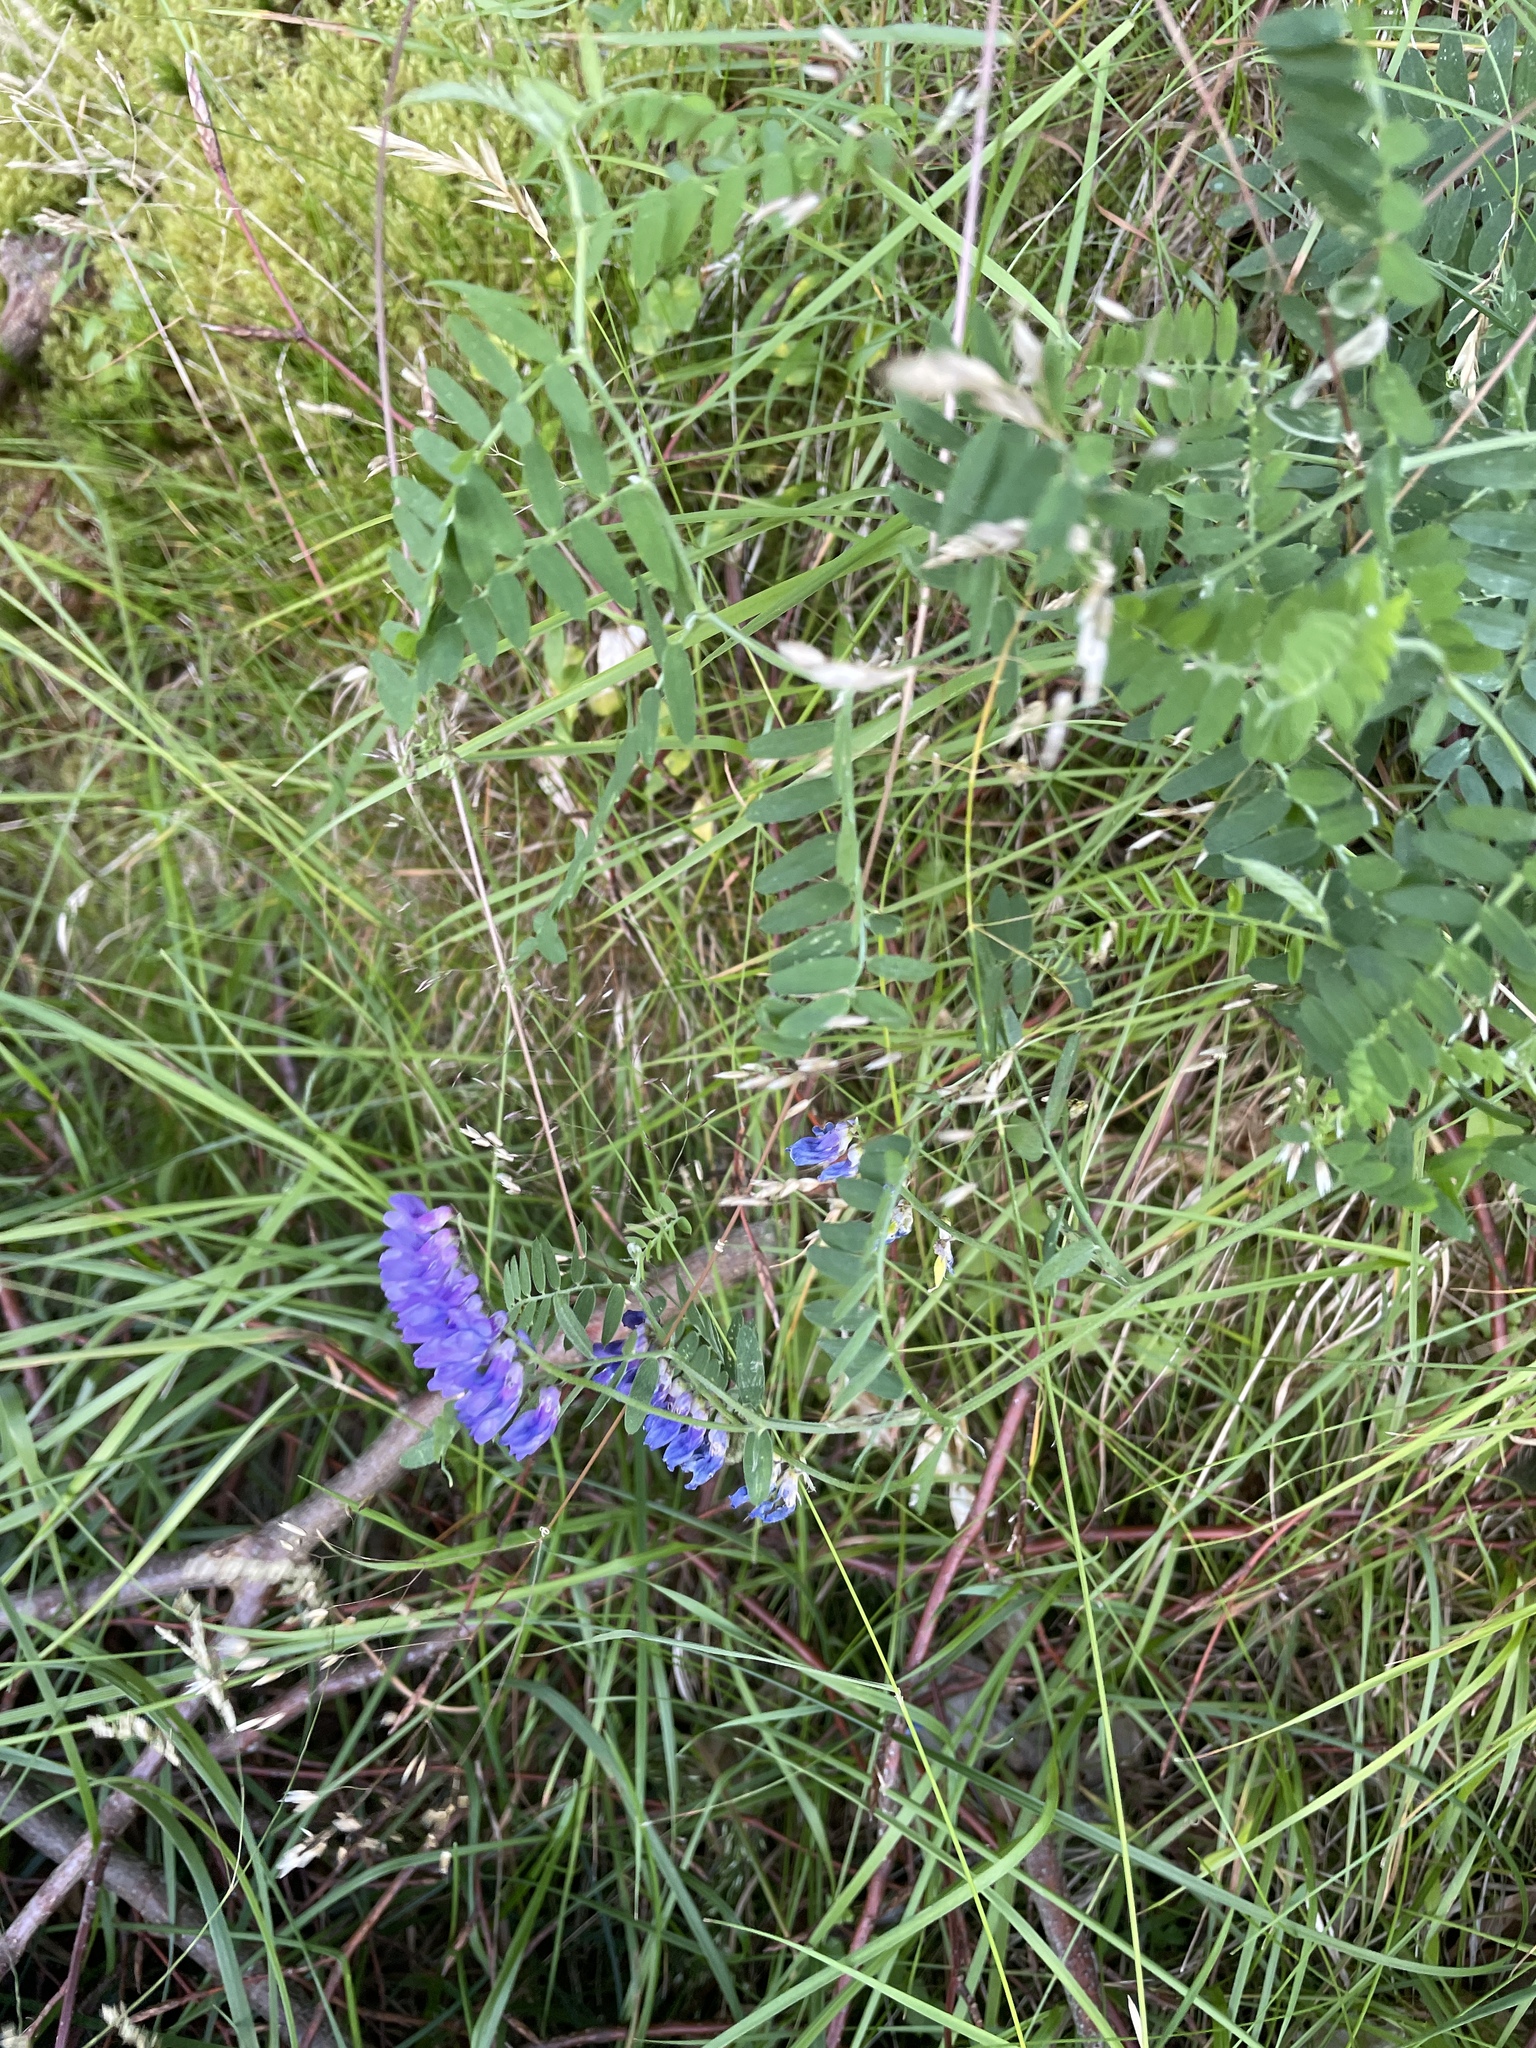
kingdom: Plantae
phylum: Tracheophyta
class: Magnoliopsida
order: Fabales
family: Fabaceae
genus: Vicia
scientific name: Vicia cracca
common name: Bird vetch
